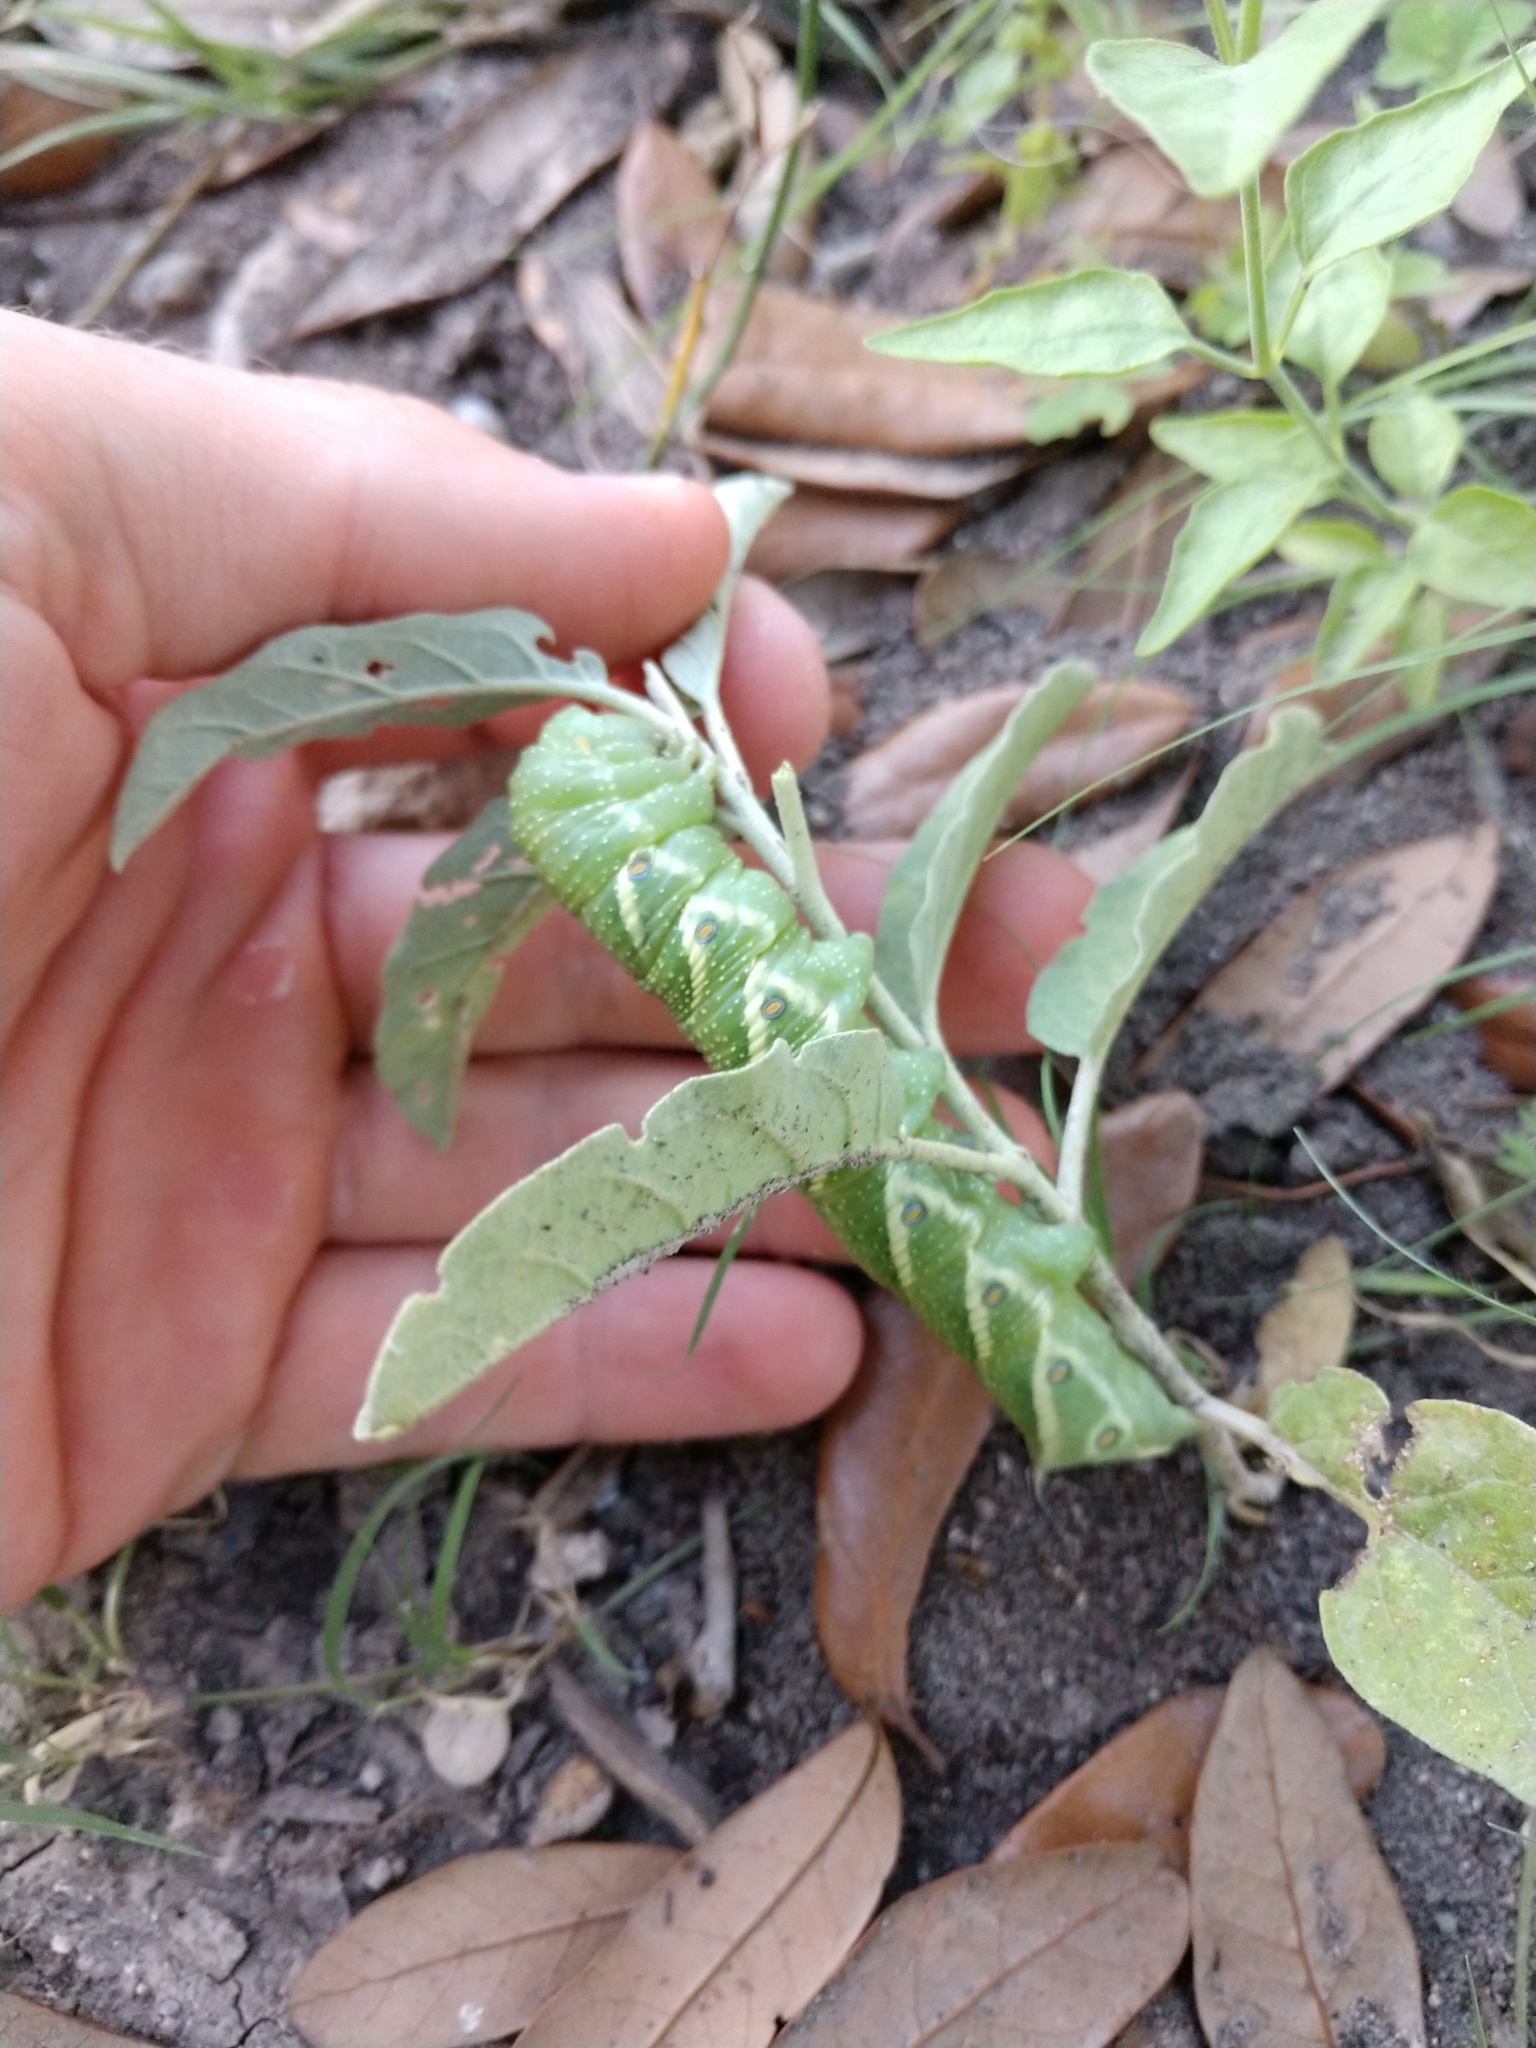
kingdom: Animalia
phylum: Arthropoda
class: Insecta
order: Lepidoptera
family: Sphingidae
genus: Manduca
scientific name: Manduca quinquemaculatus
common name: Five-spotted hawk-moth
